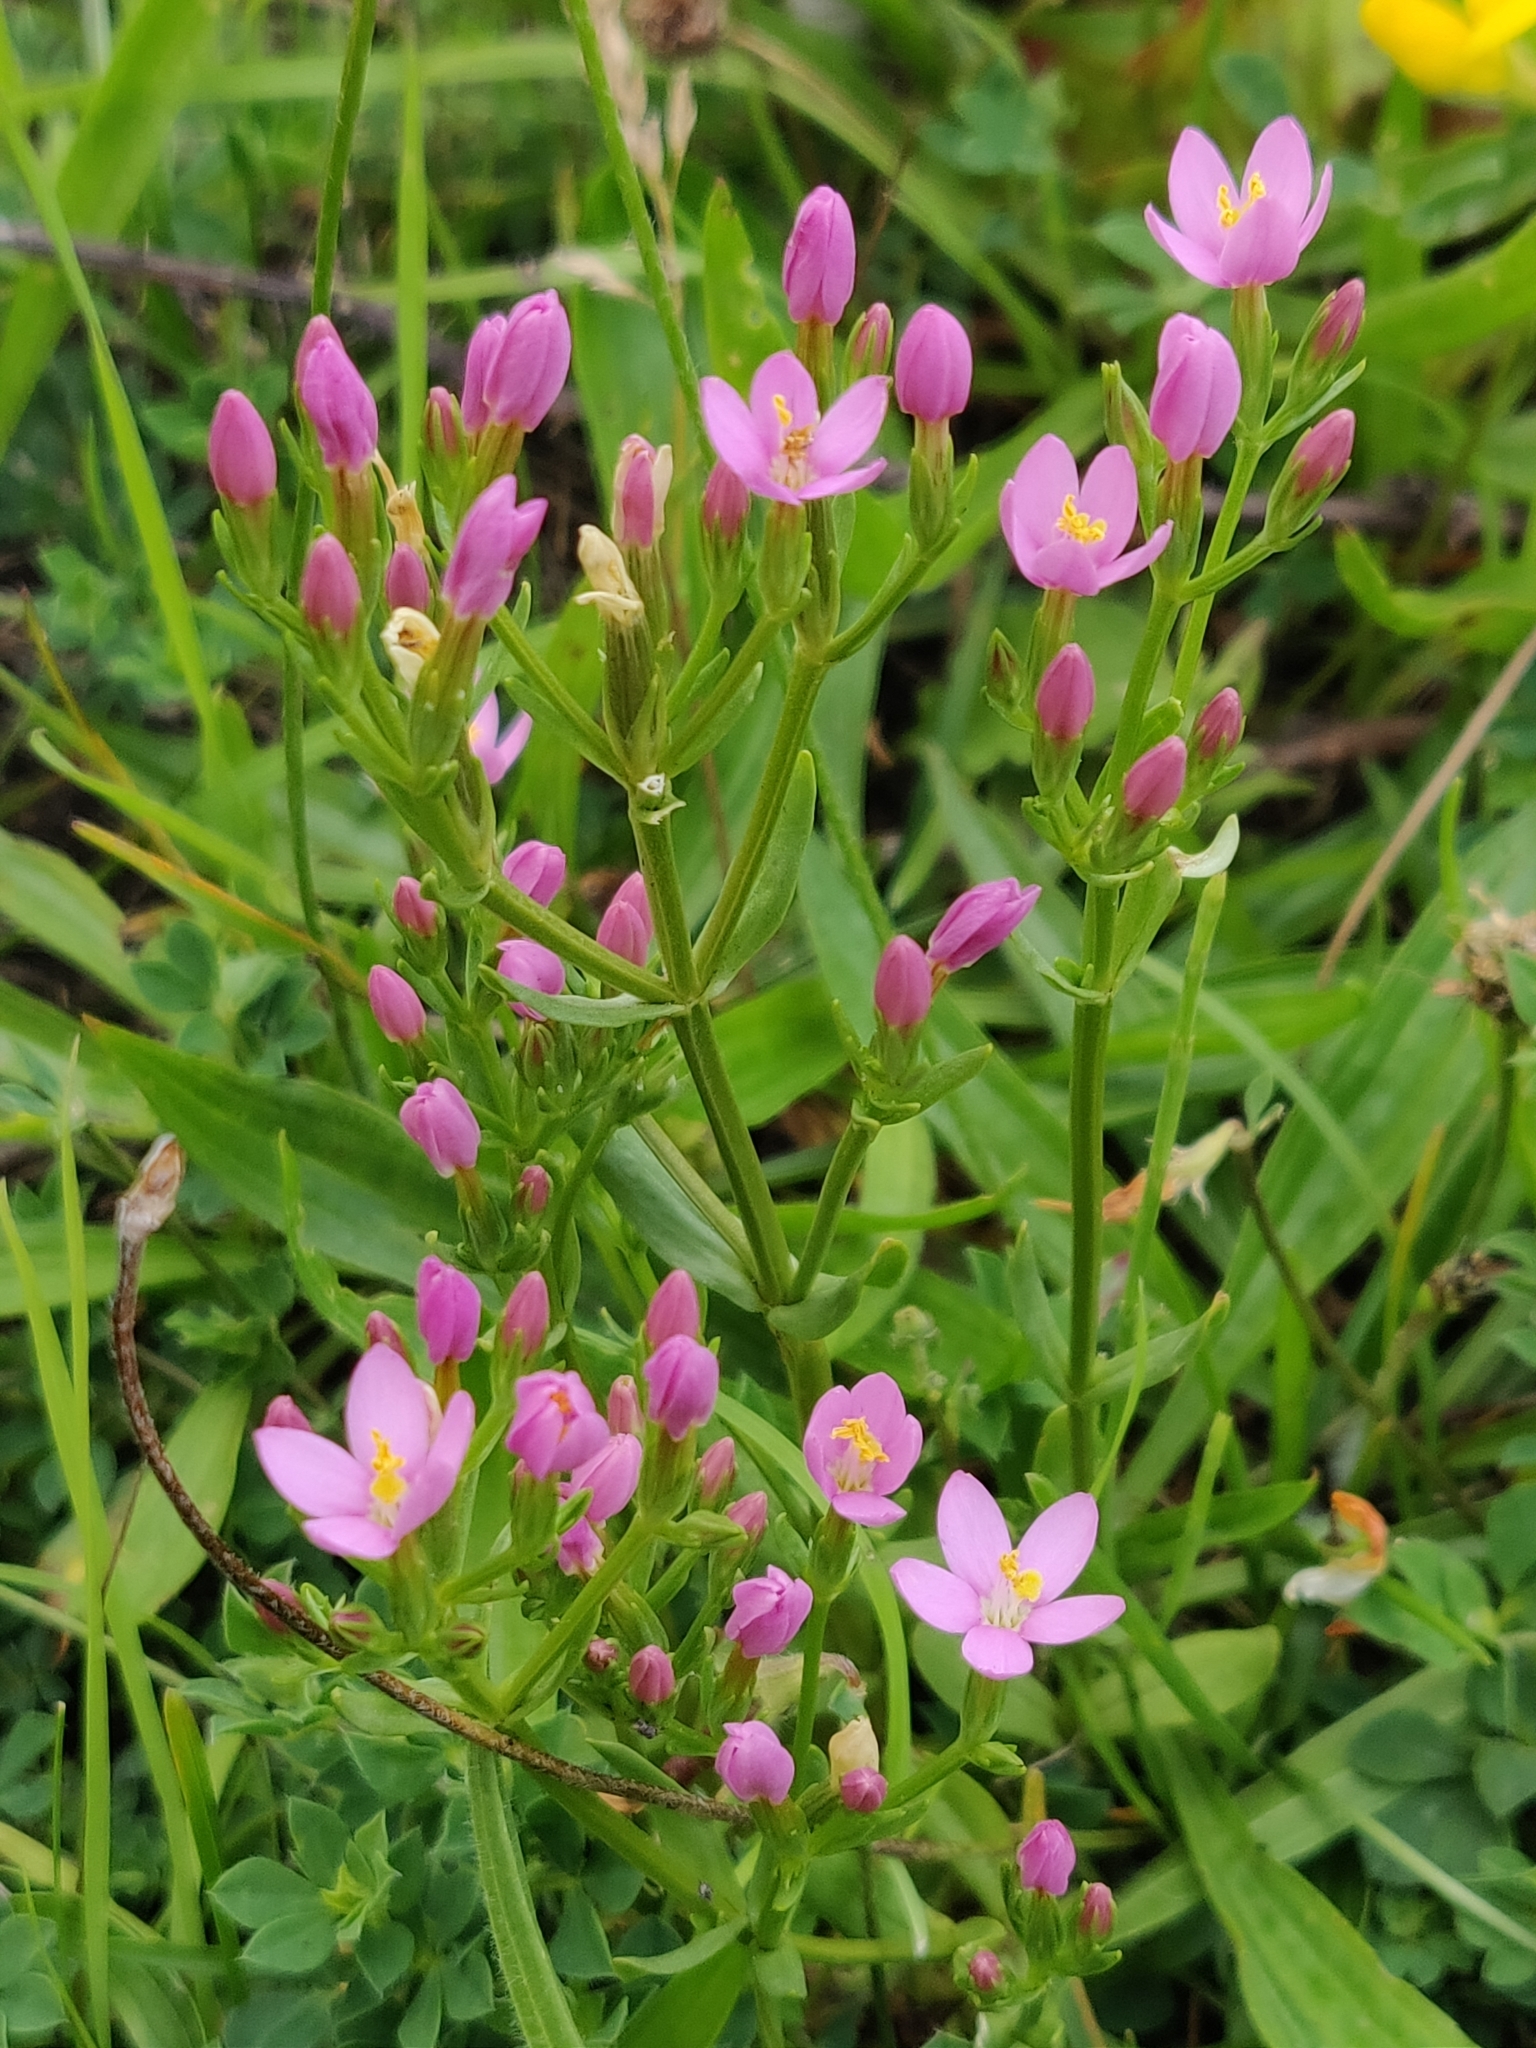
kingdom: Plantae
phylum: Tracheophyta
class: Magnoliopsida
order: Gentianales
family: Gentianaceae
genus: Centaurium
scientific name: Centaurium erythraea
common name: Common centaury
